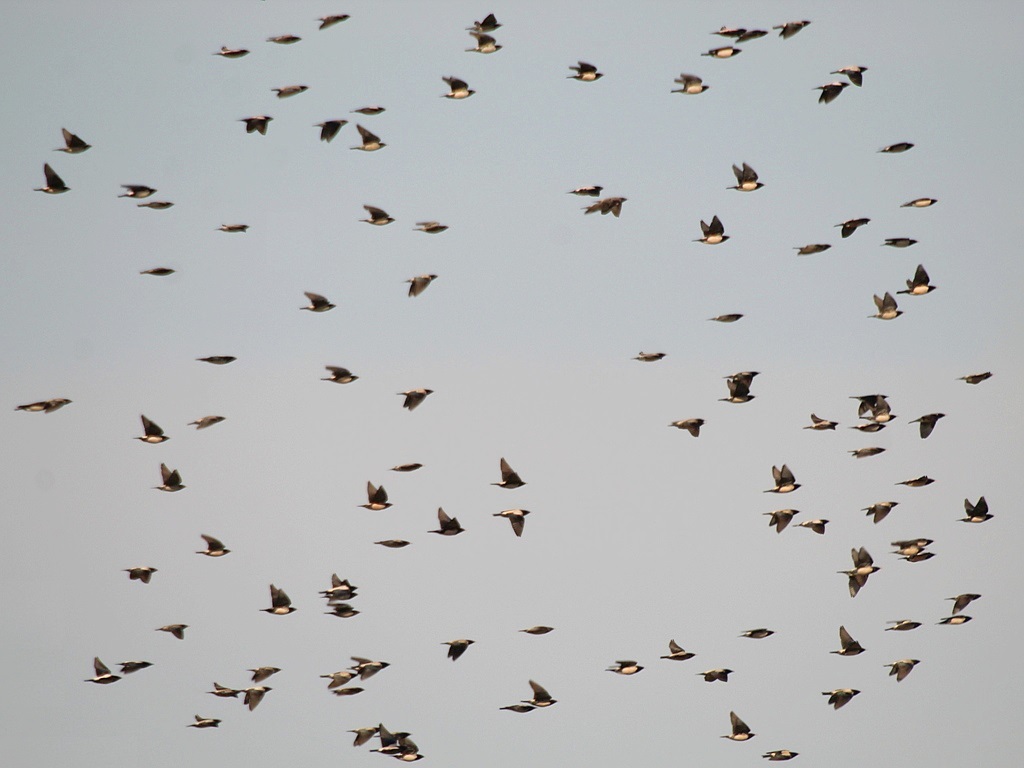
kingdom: Animalia
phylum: Chordata
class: Aves
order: Passeriformes
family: Sturnidae
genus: Pastor
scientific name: Pastor roseus
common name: Rosy starling
